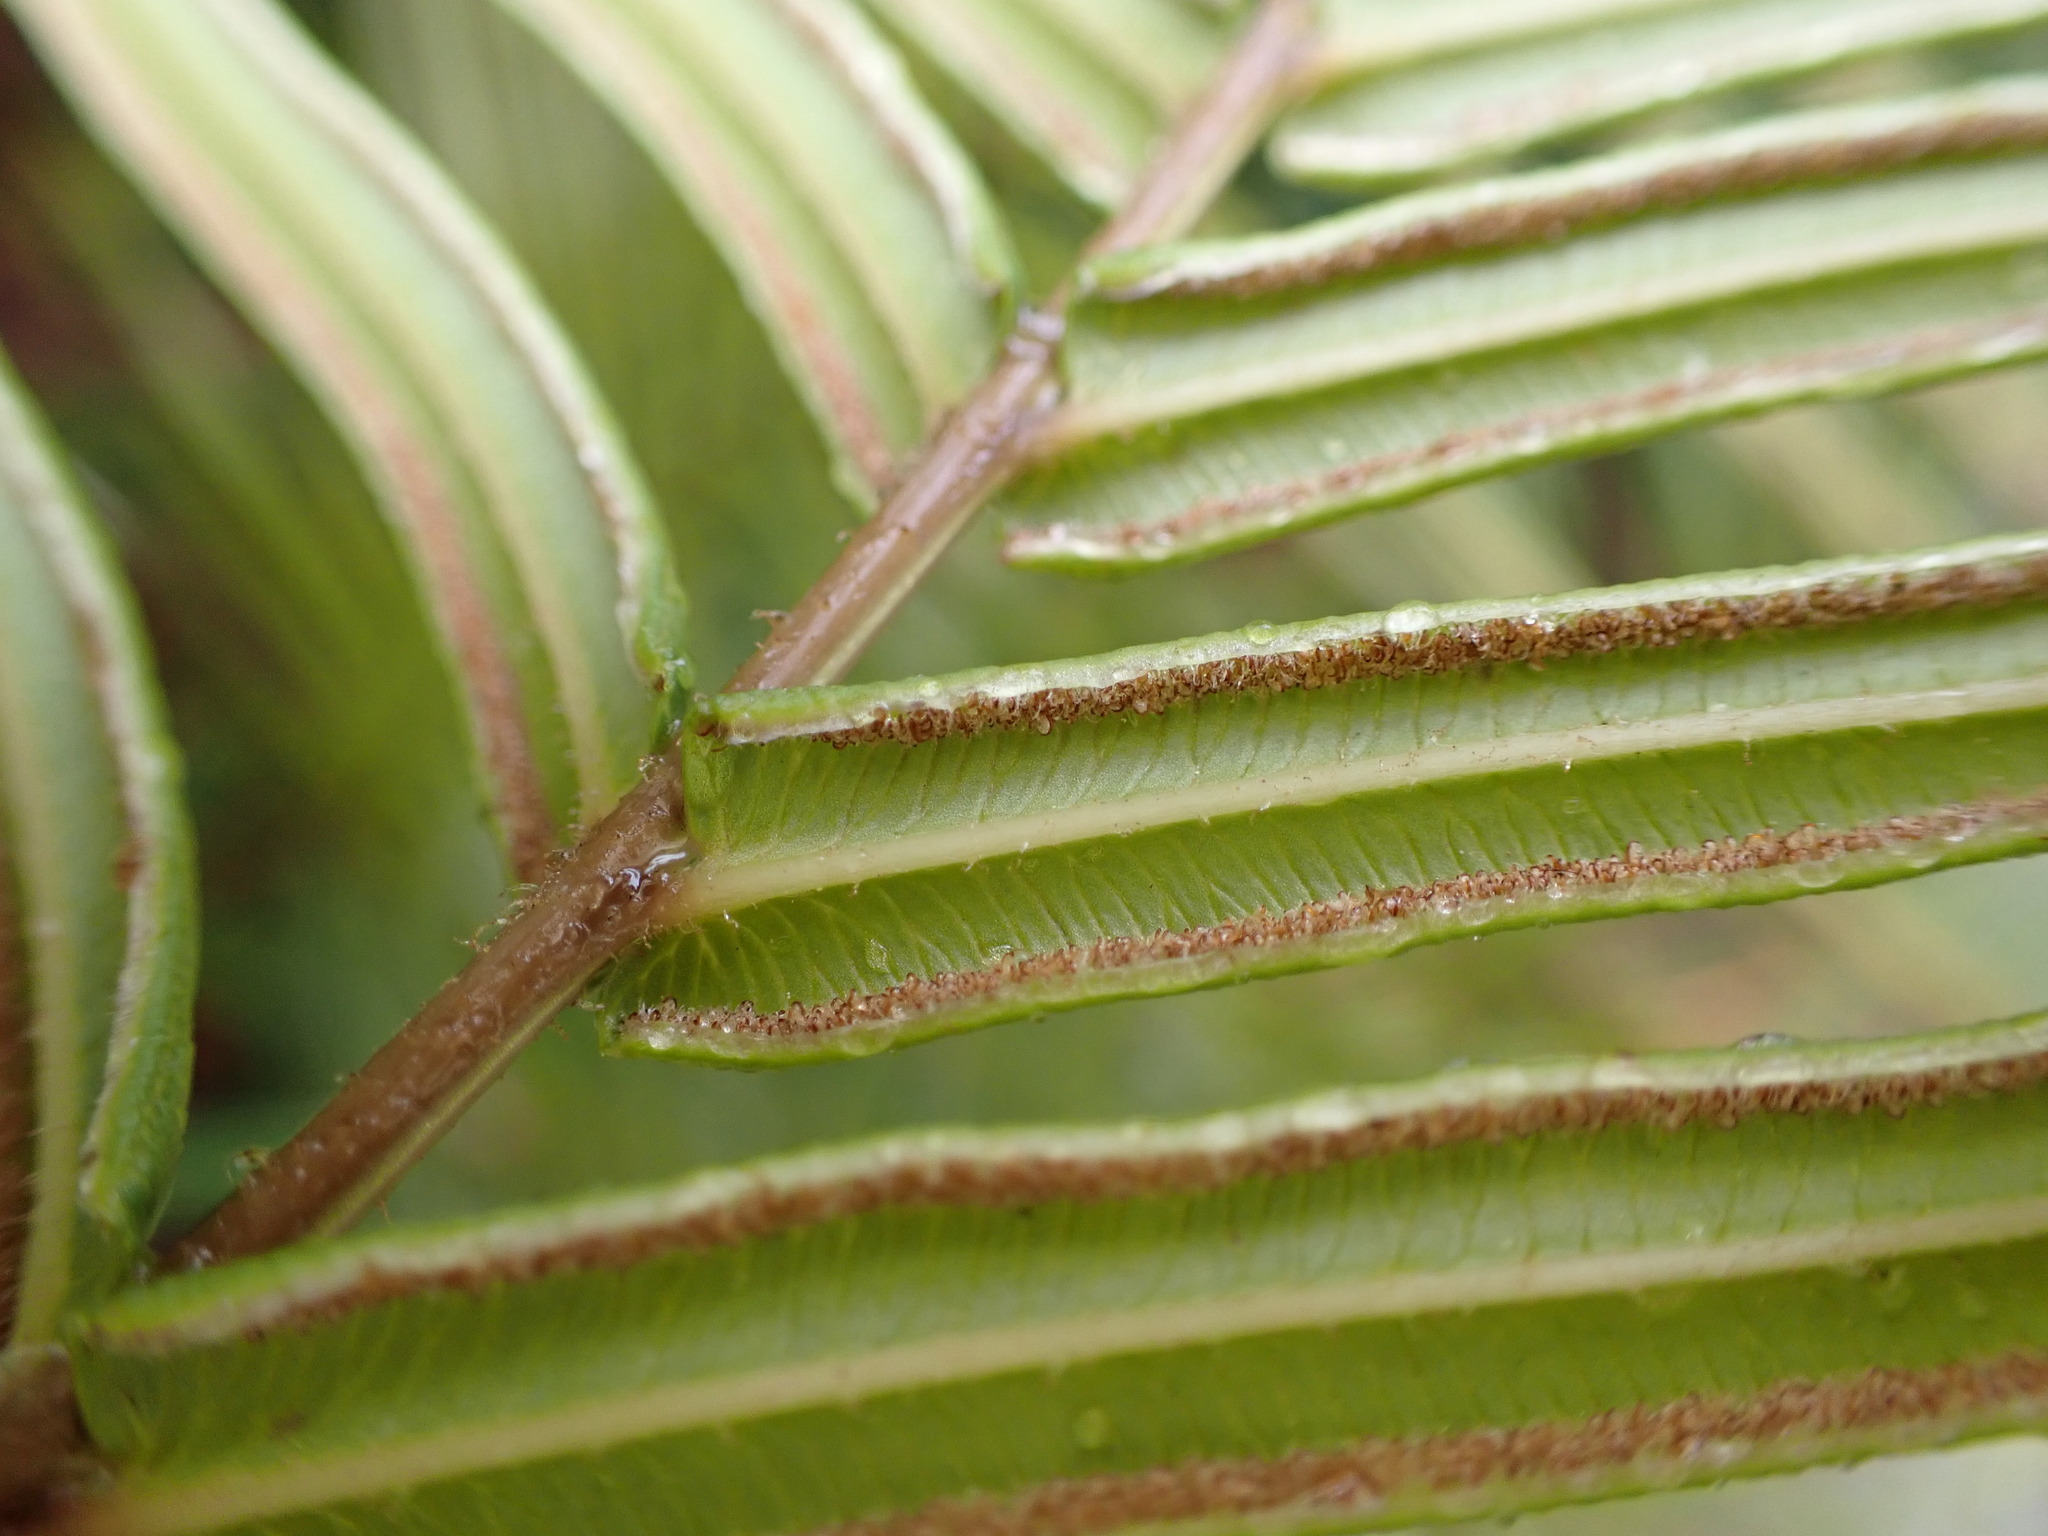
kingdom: Plantae
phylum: Tracheophyta
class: Polypodiopsida
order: Polypodiales
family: Pteridaceae
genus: Pteris
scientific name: Pteris vittata
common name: Ladder brake
